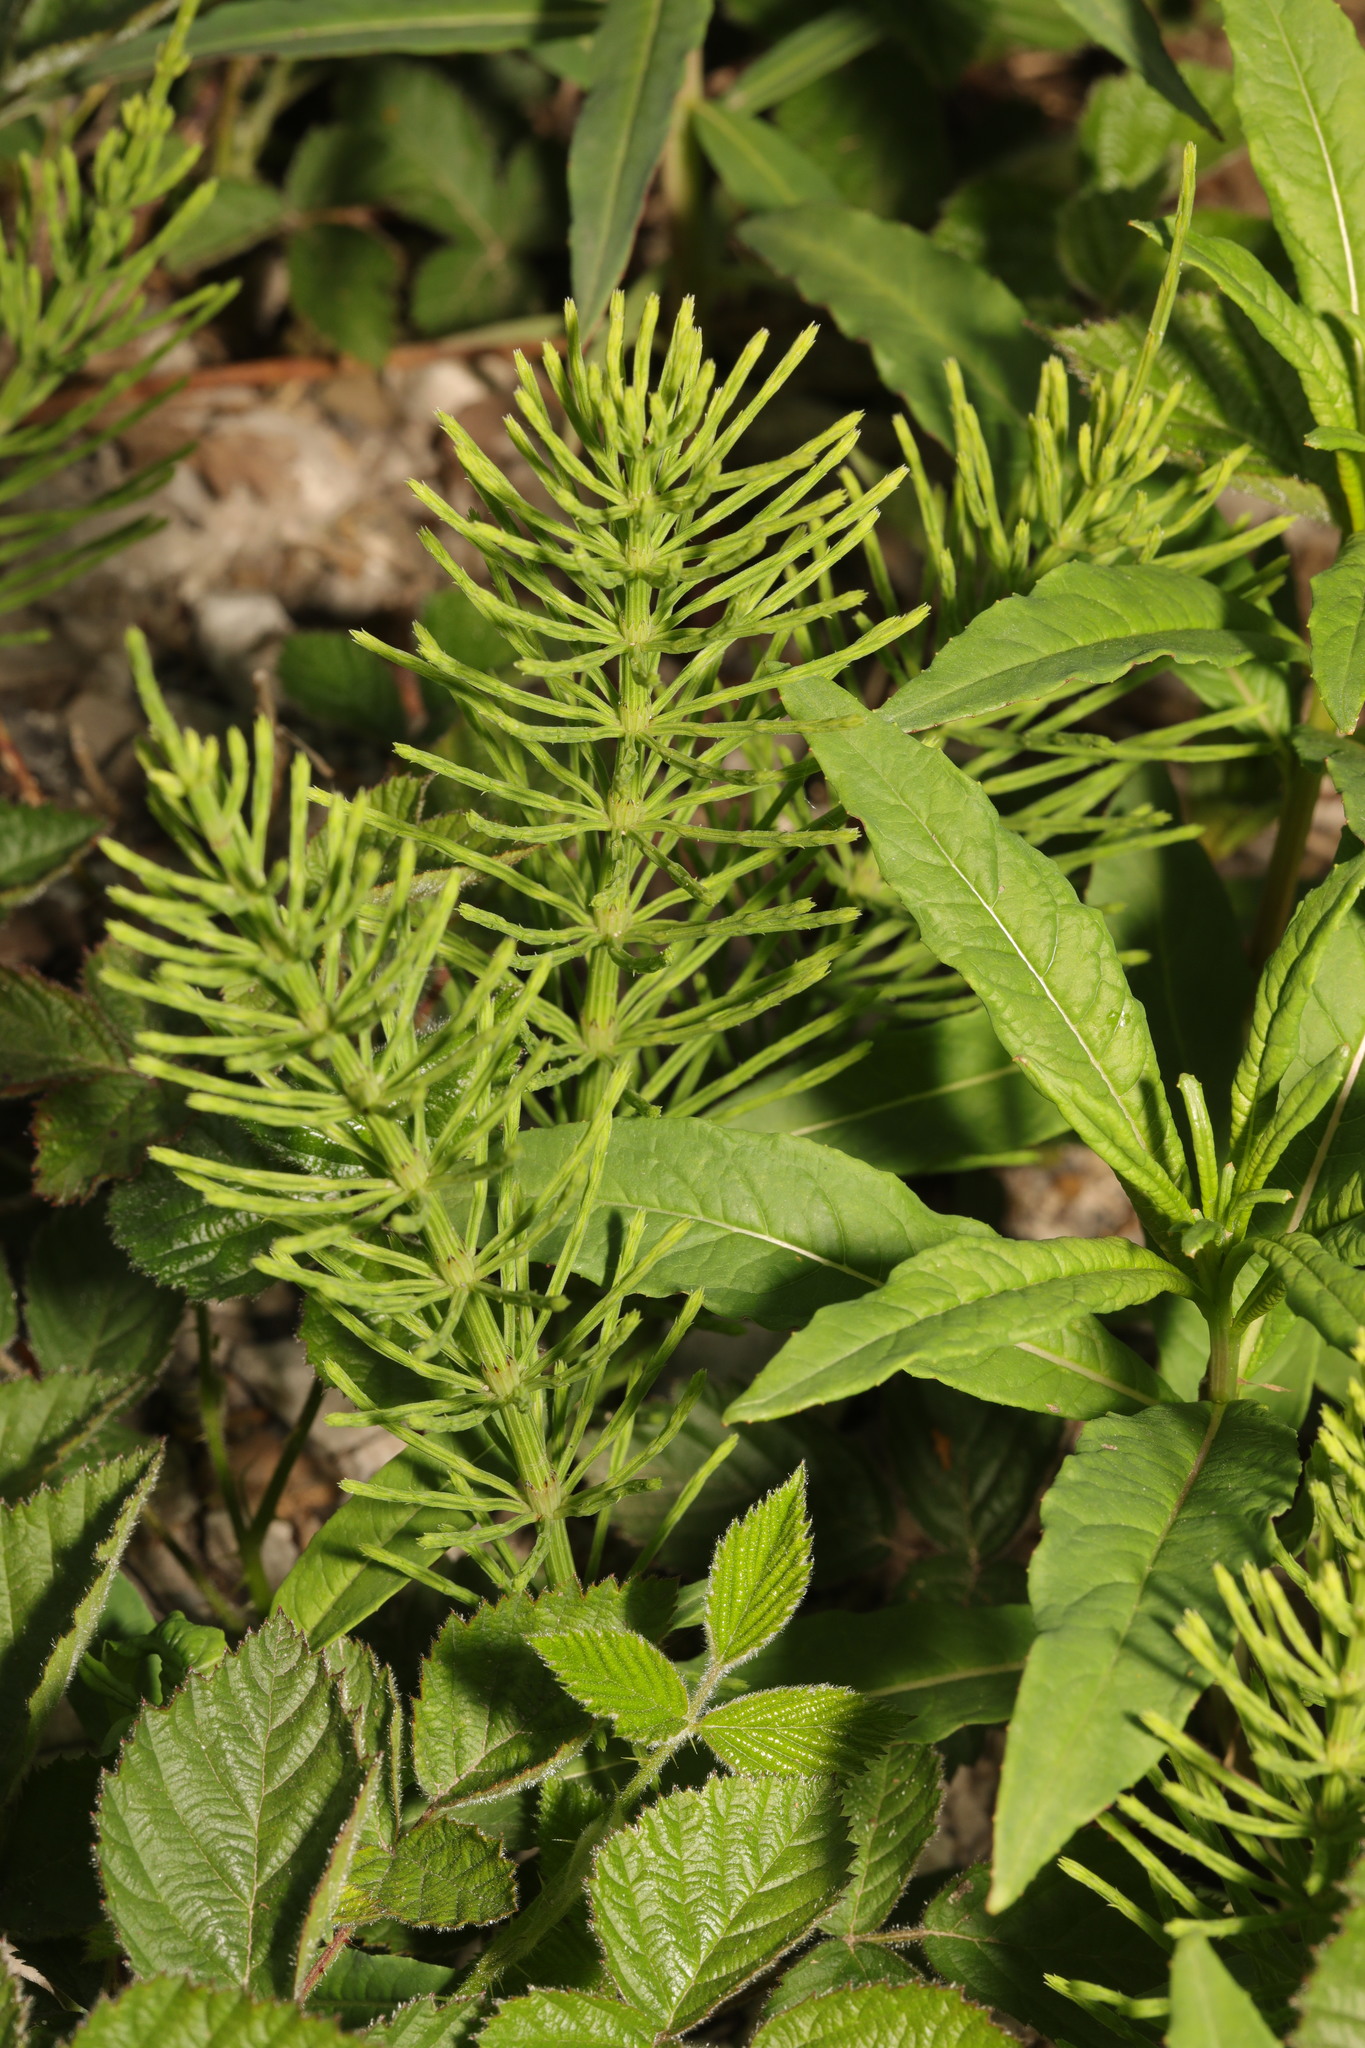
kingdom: Plantae
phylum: Tracheophyta
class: Polypodiopsida
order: Equisetales
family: Equisetaceae
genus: Equisetum
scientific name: Equisetum arvense
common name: Field horsetail
